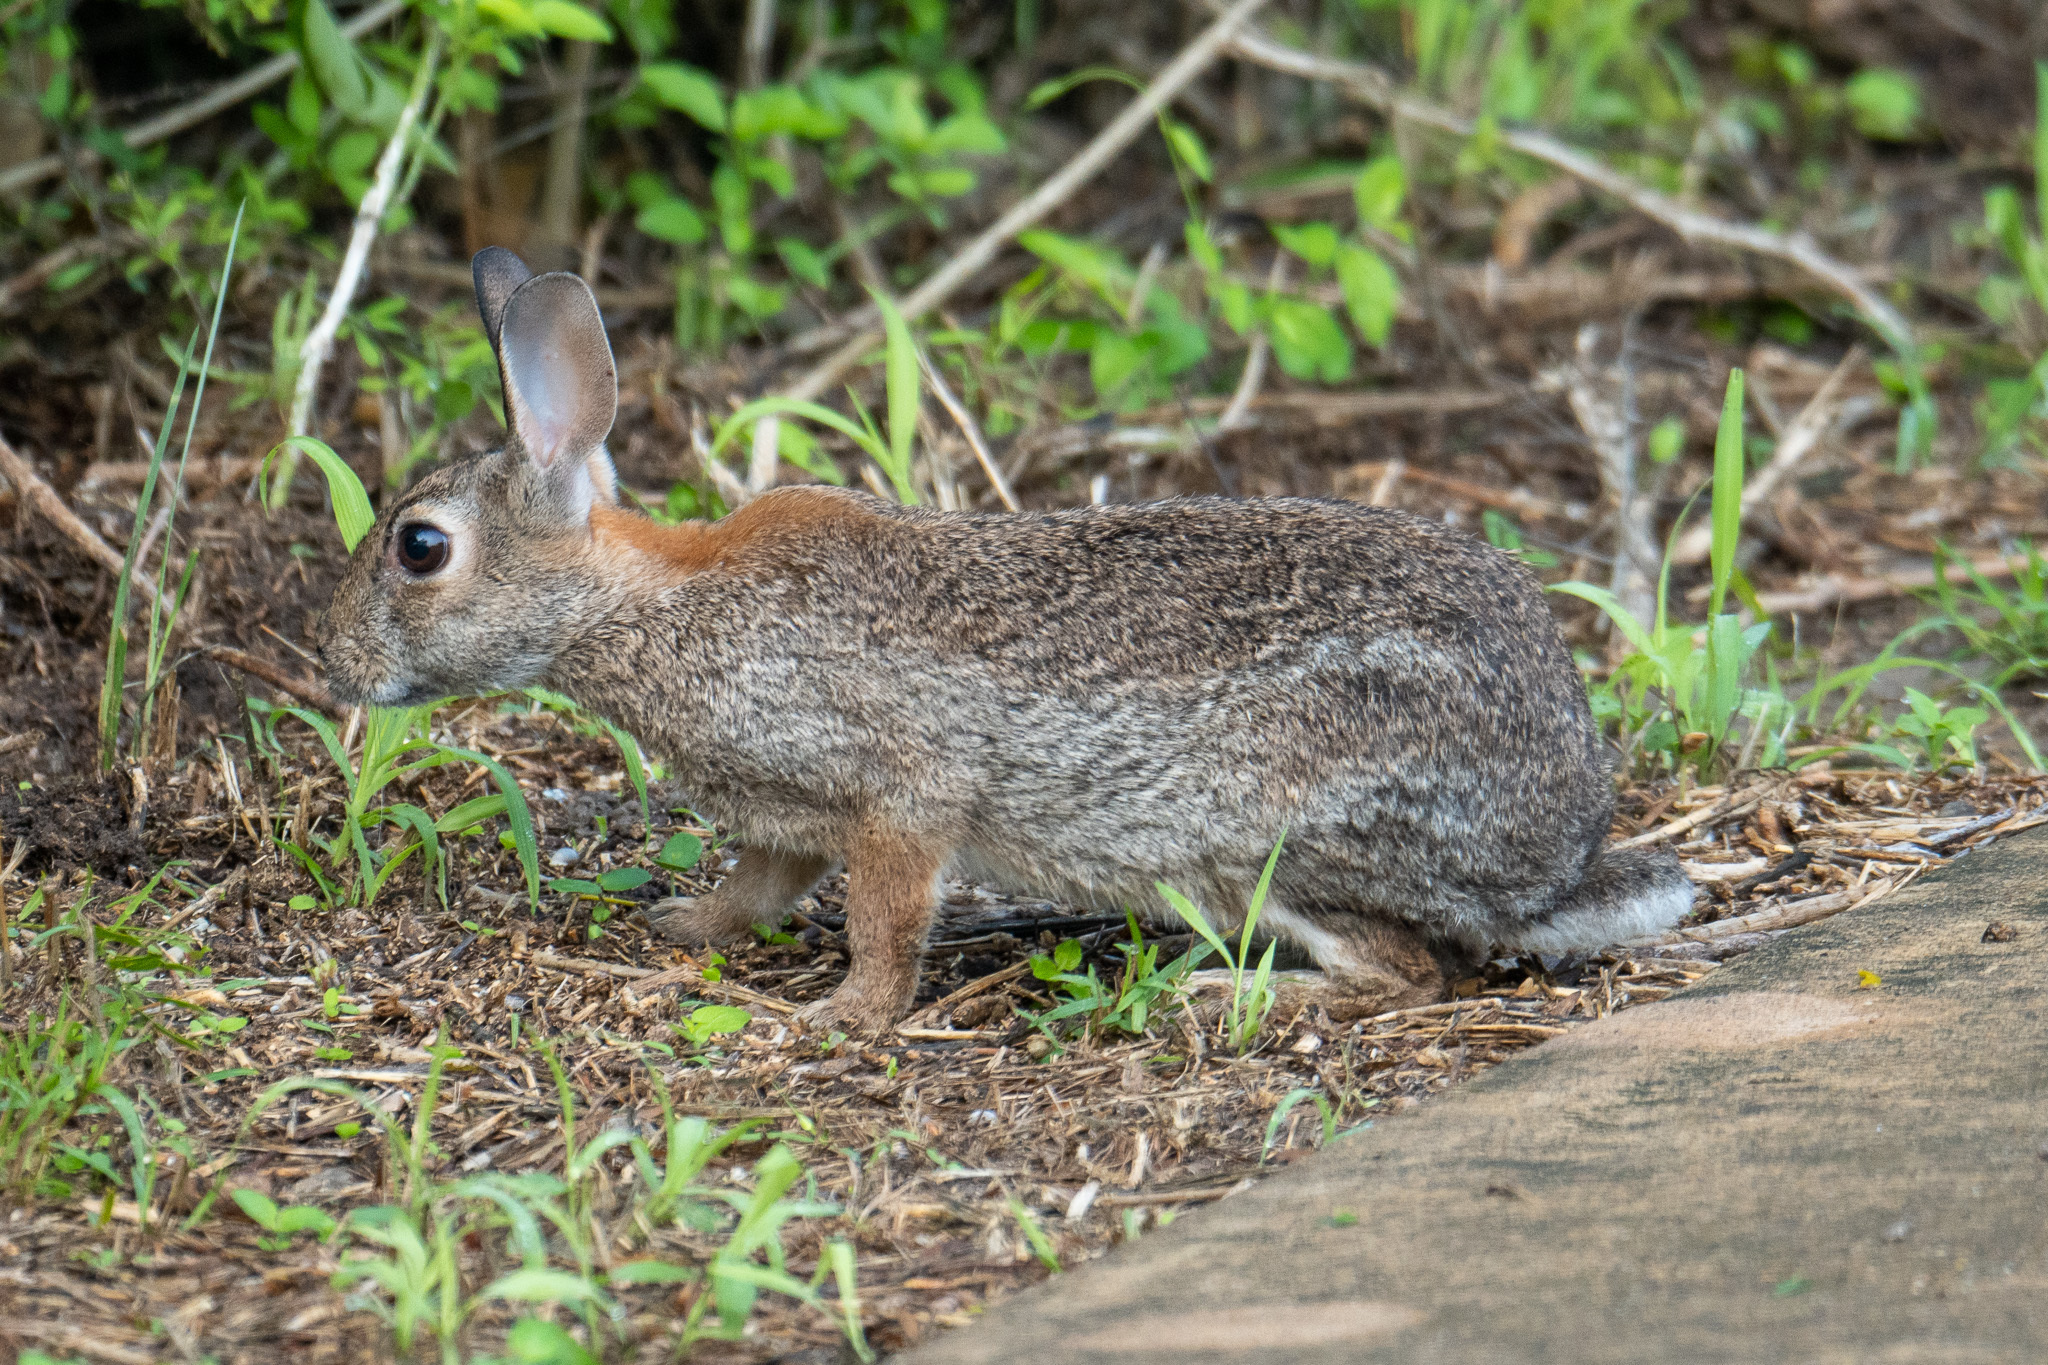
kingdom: Animalia
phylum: Chordata
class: Mammalia
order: Lagomorpha
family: Leporidae
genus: Sylvilagus
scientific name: Sylvilagus floridanus
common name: Eastern cottontail
